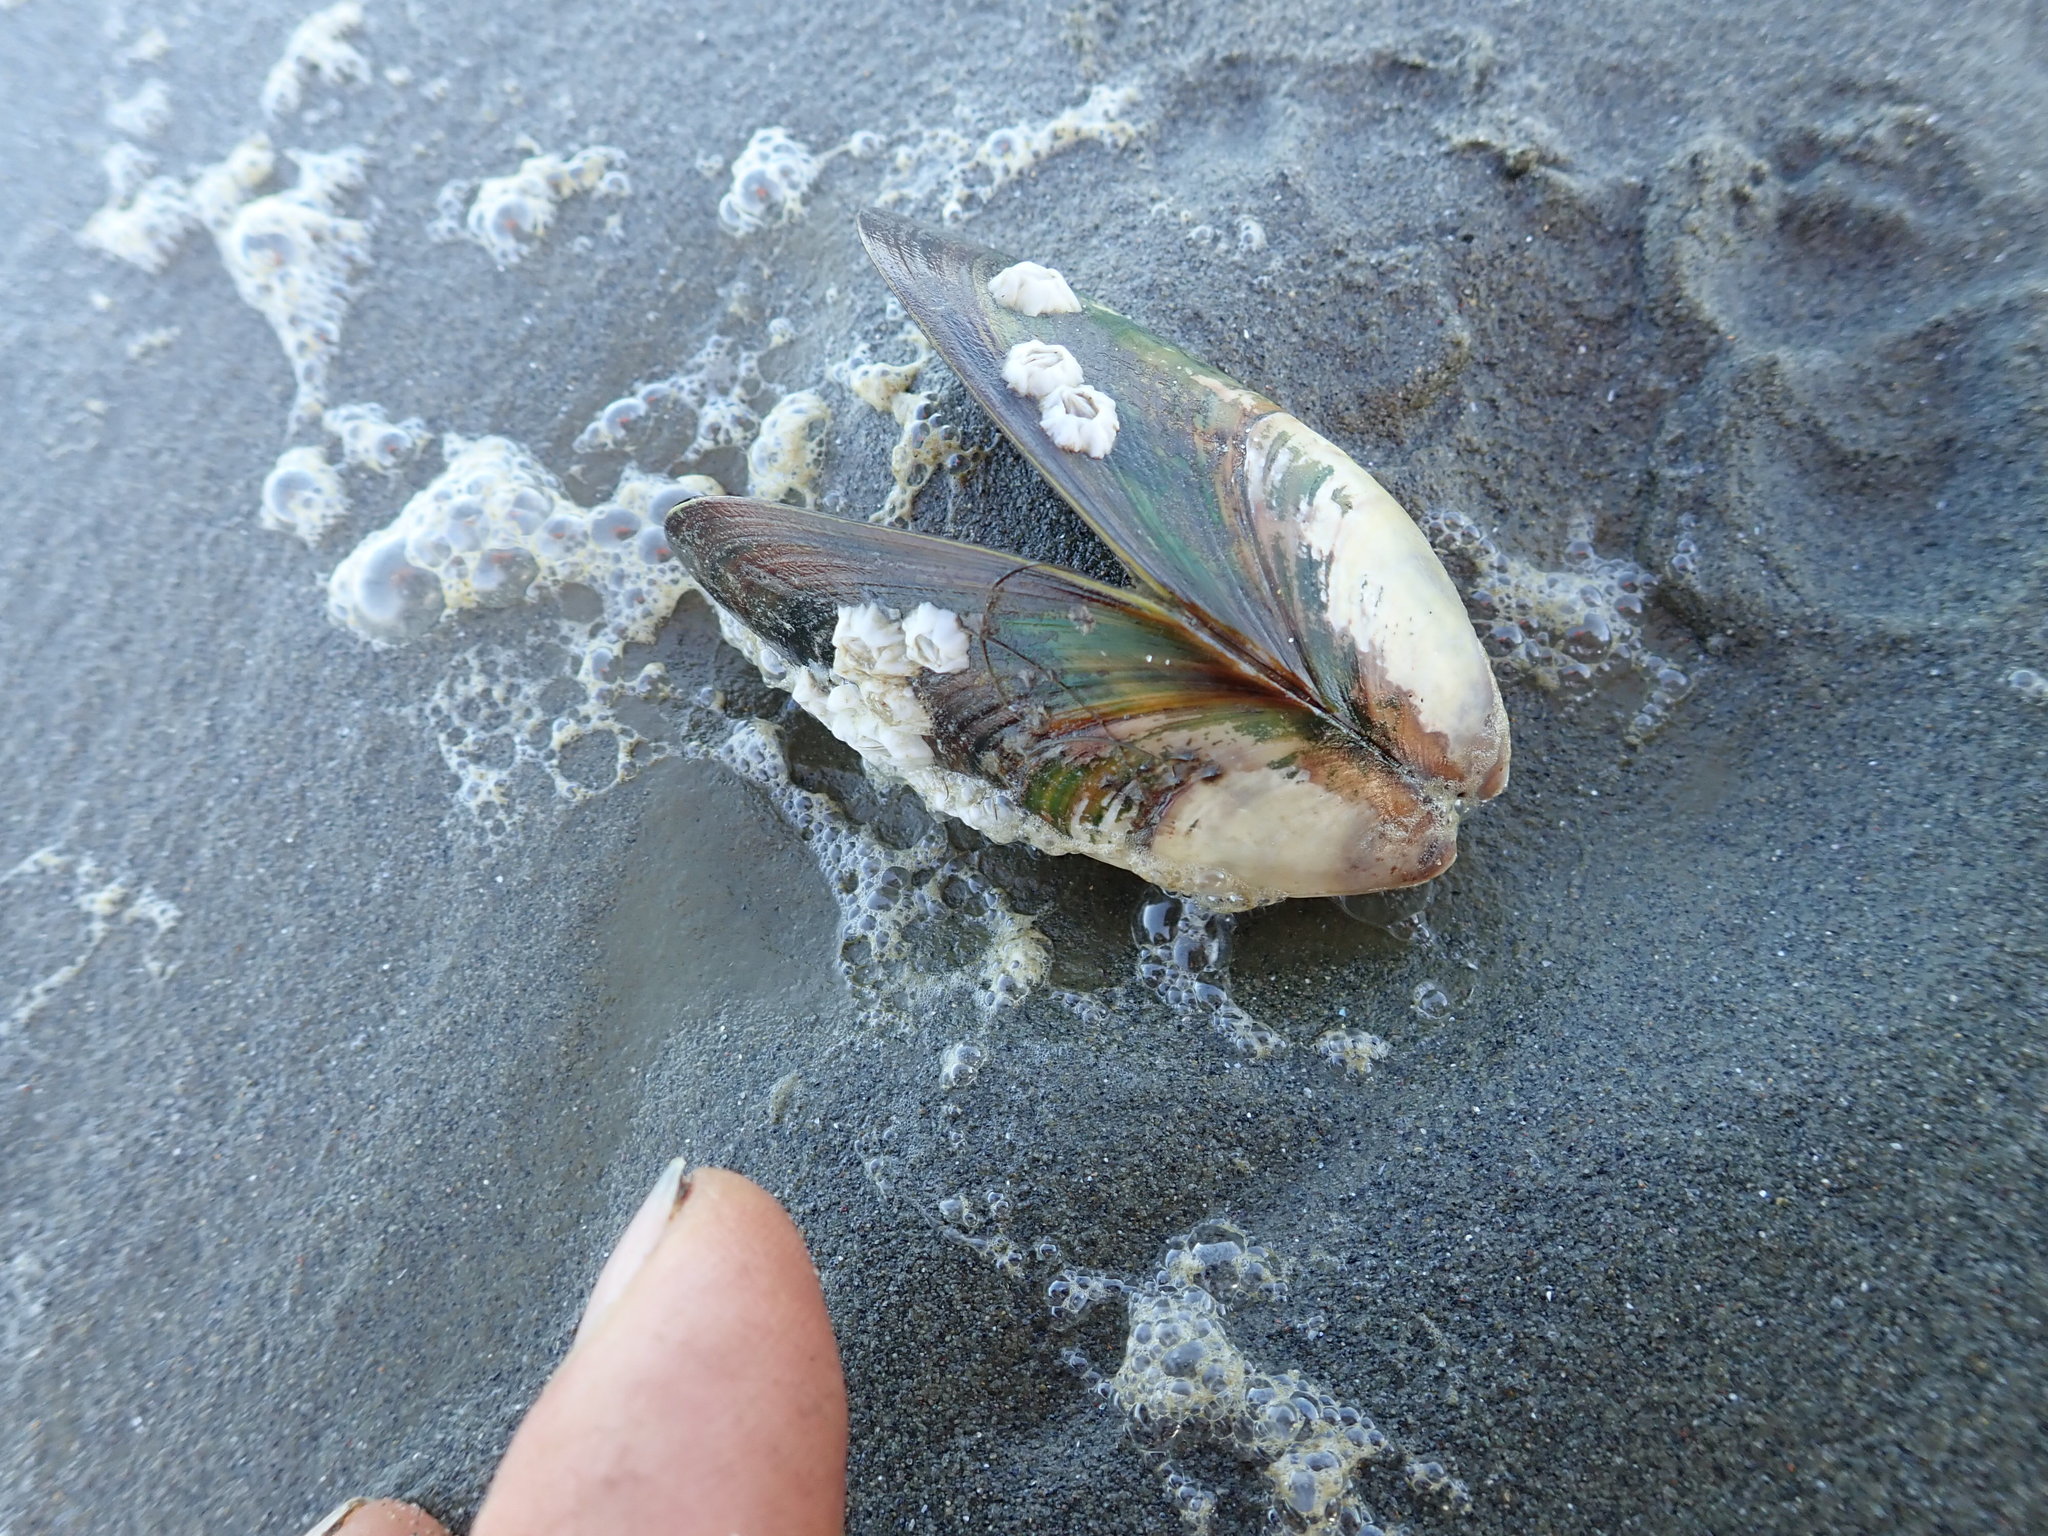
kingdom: Animalia
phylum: Mollusca
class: Bivalvia
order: Mytilida
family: Mytilidae
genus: Perna
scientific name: Perna canaliculus
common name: New zealand greenshelltm
